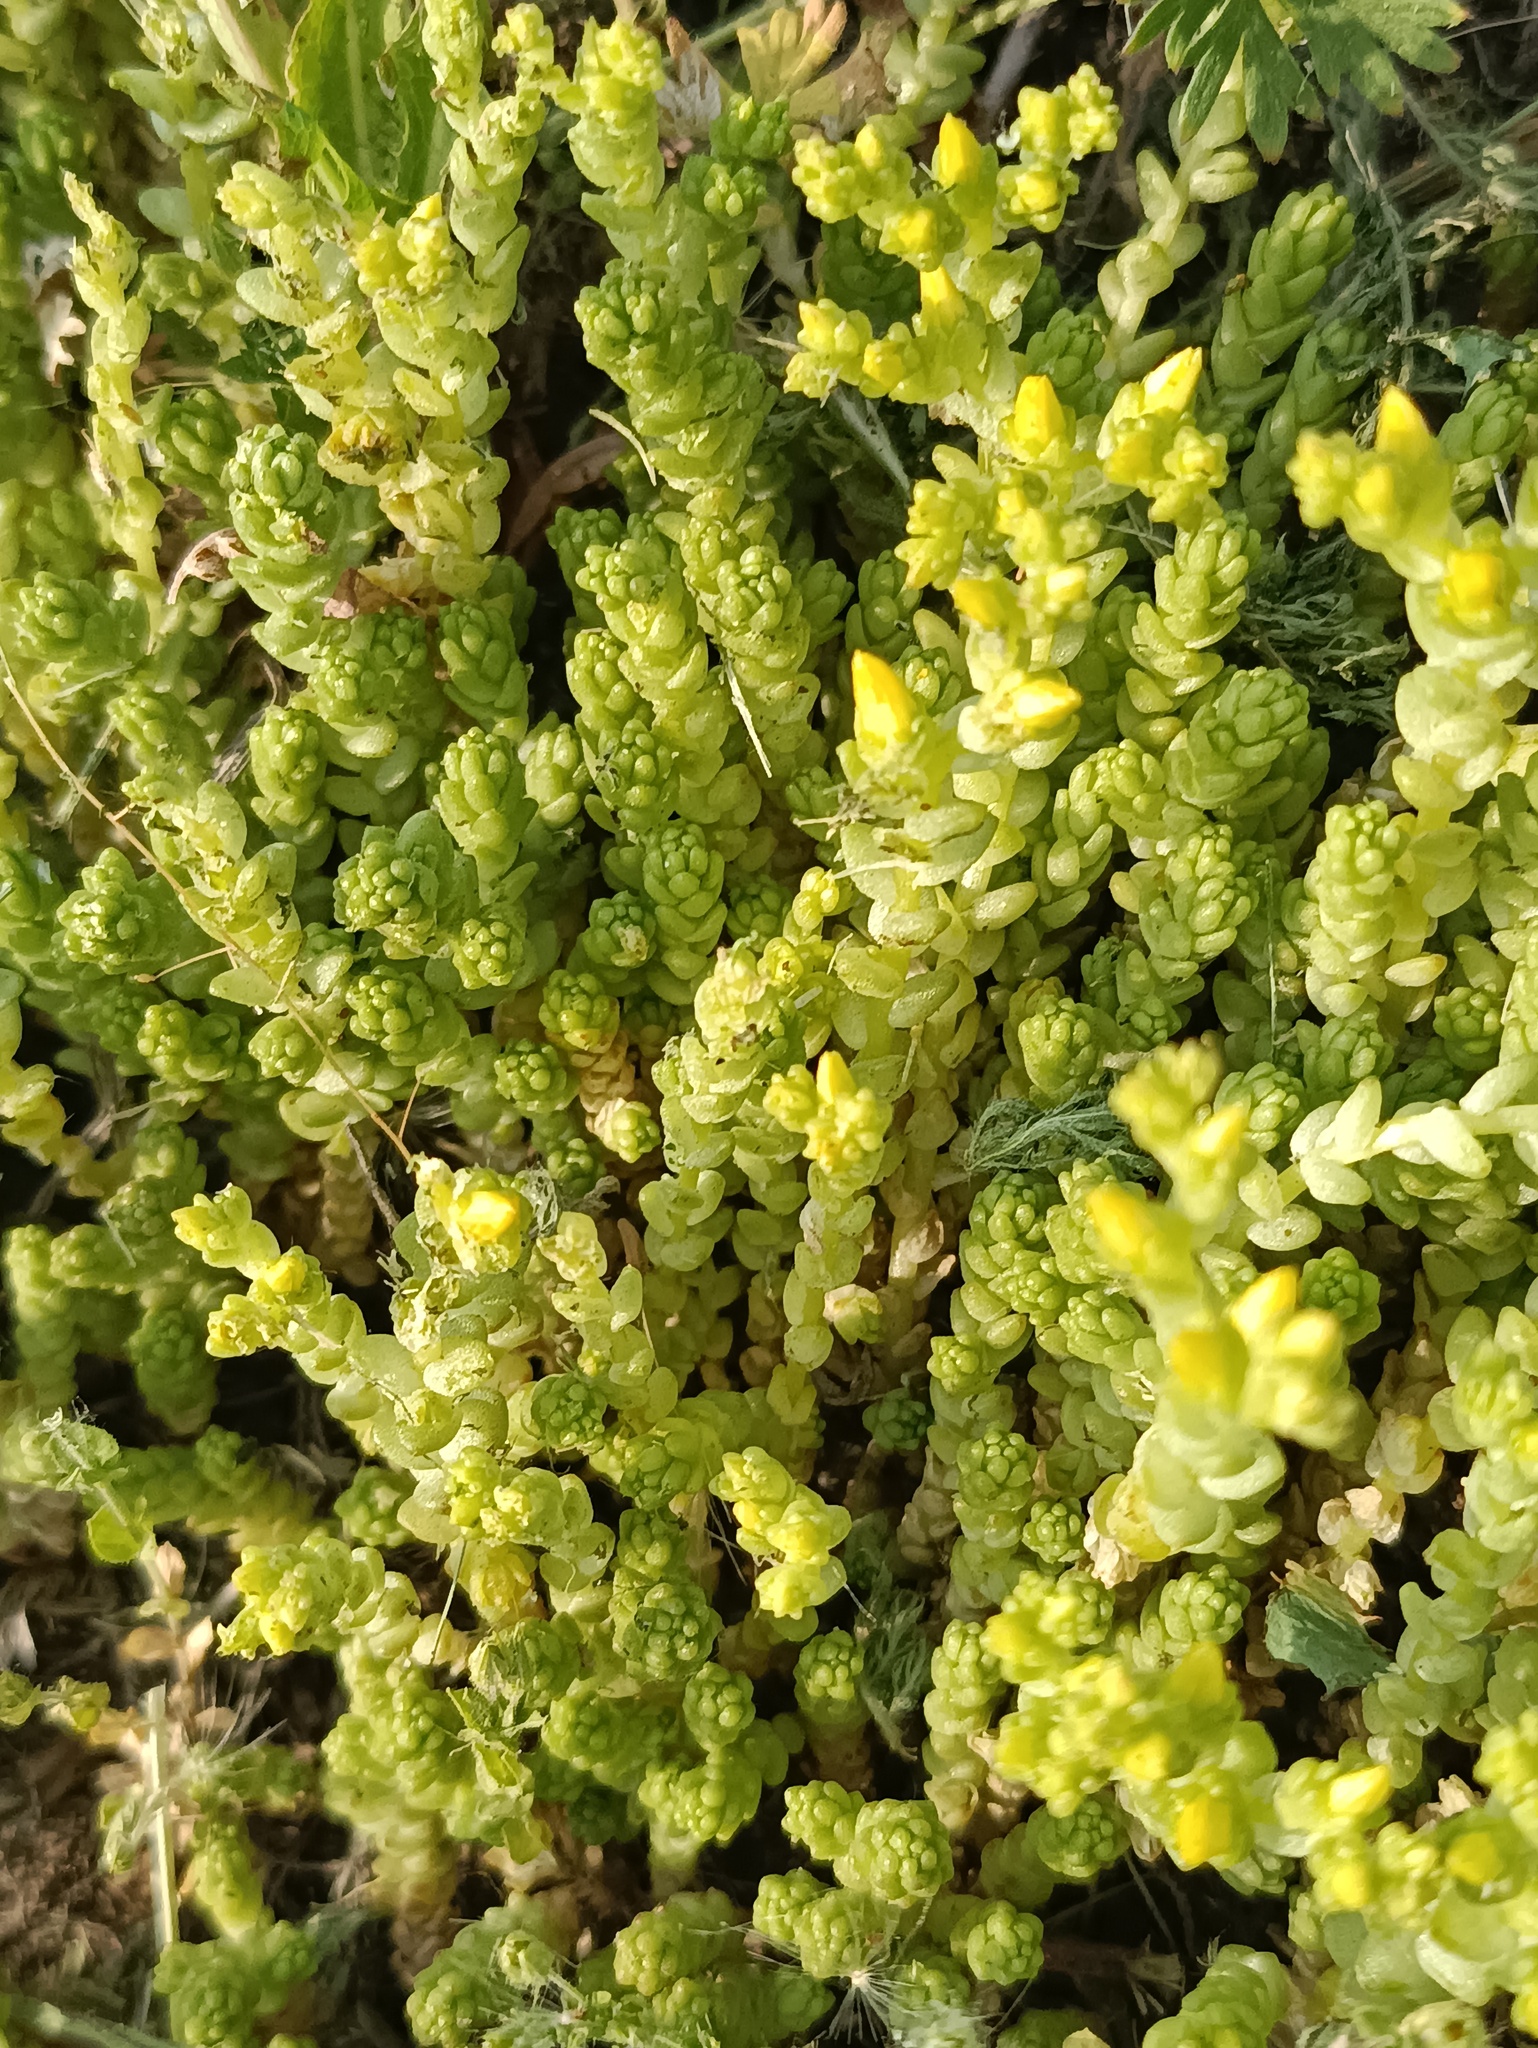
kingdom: Plantae
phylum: Tracheophyta
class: Magnoliopsida
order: Saxifragales
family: Crassulaceae
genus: Sedum
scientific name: Sedum acre
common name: Biting stonecrop
